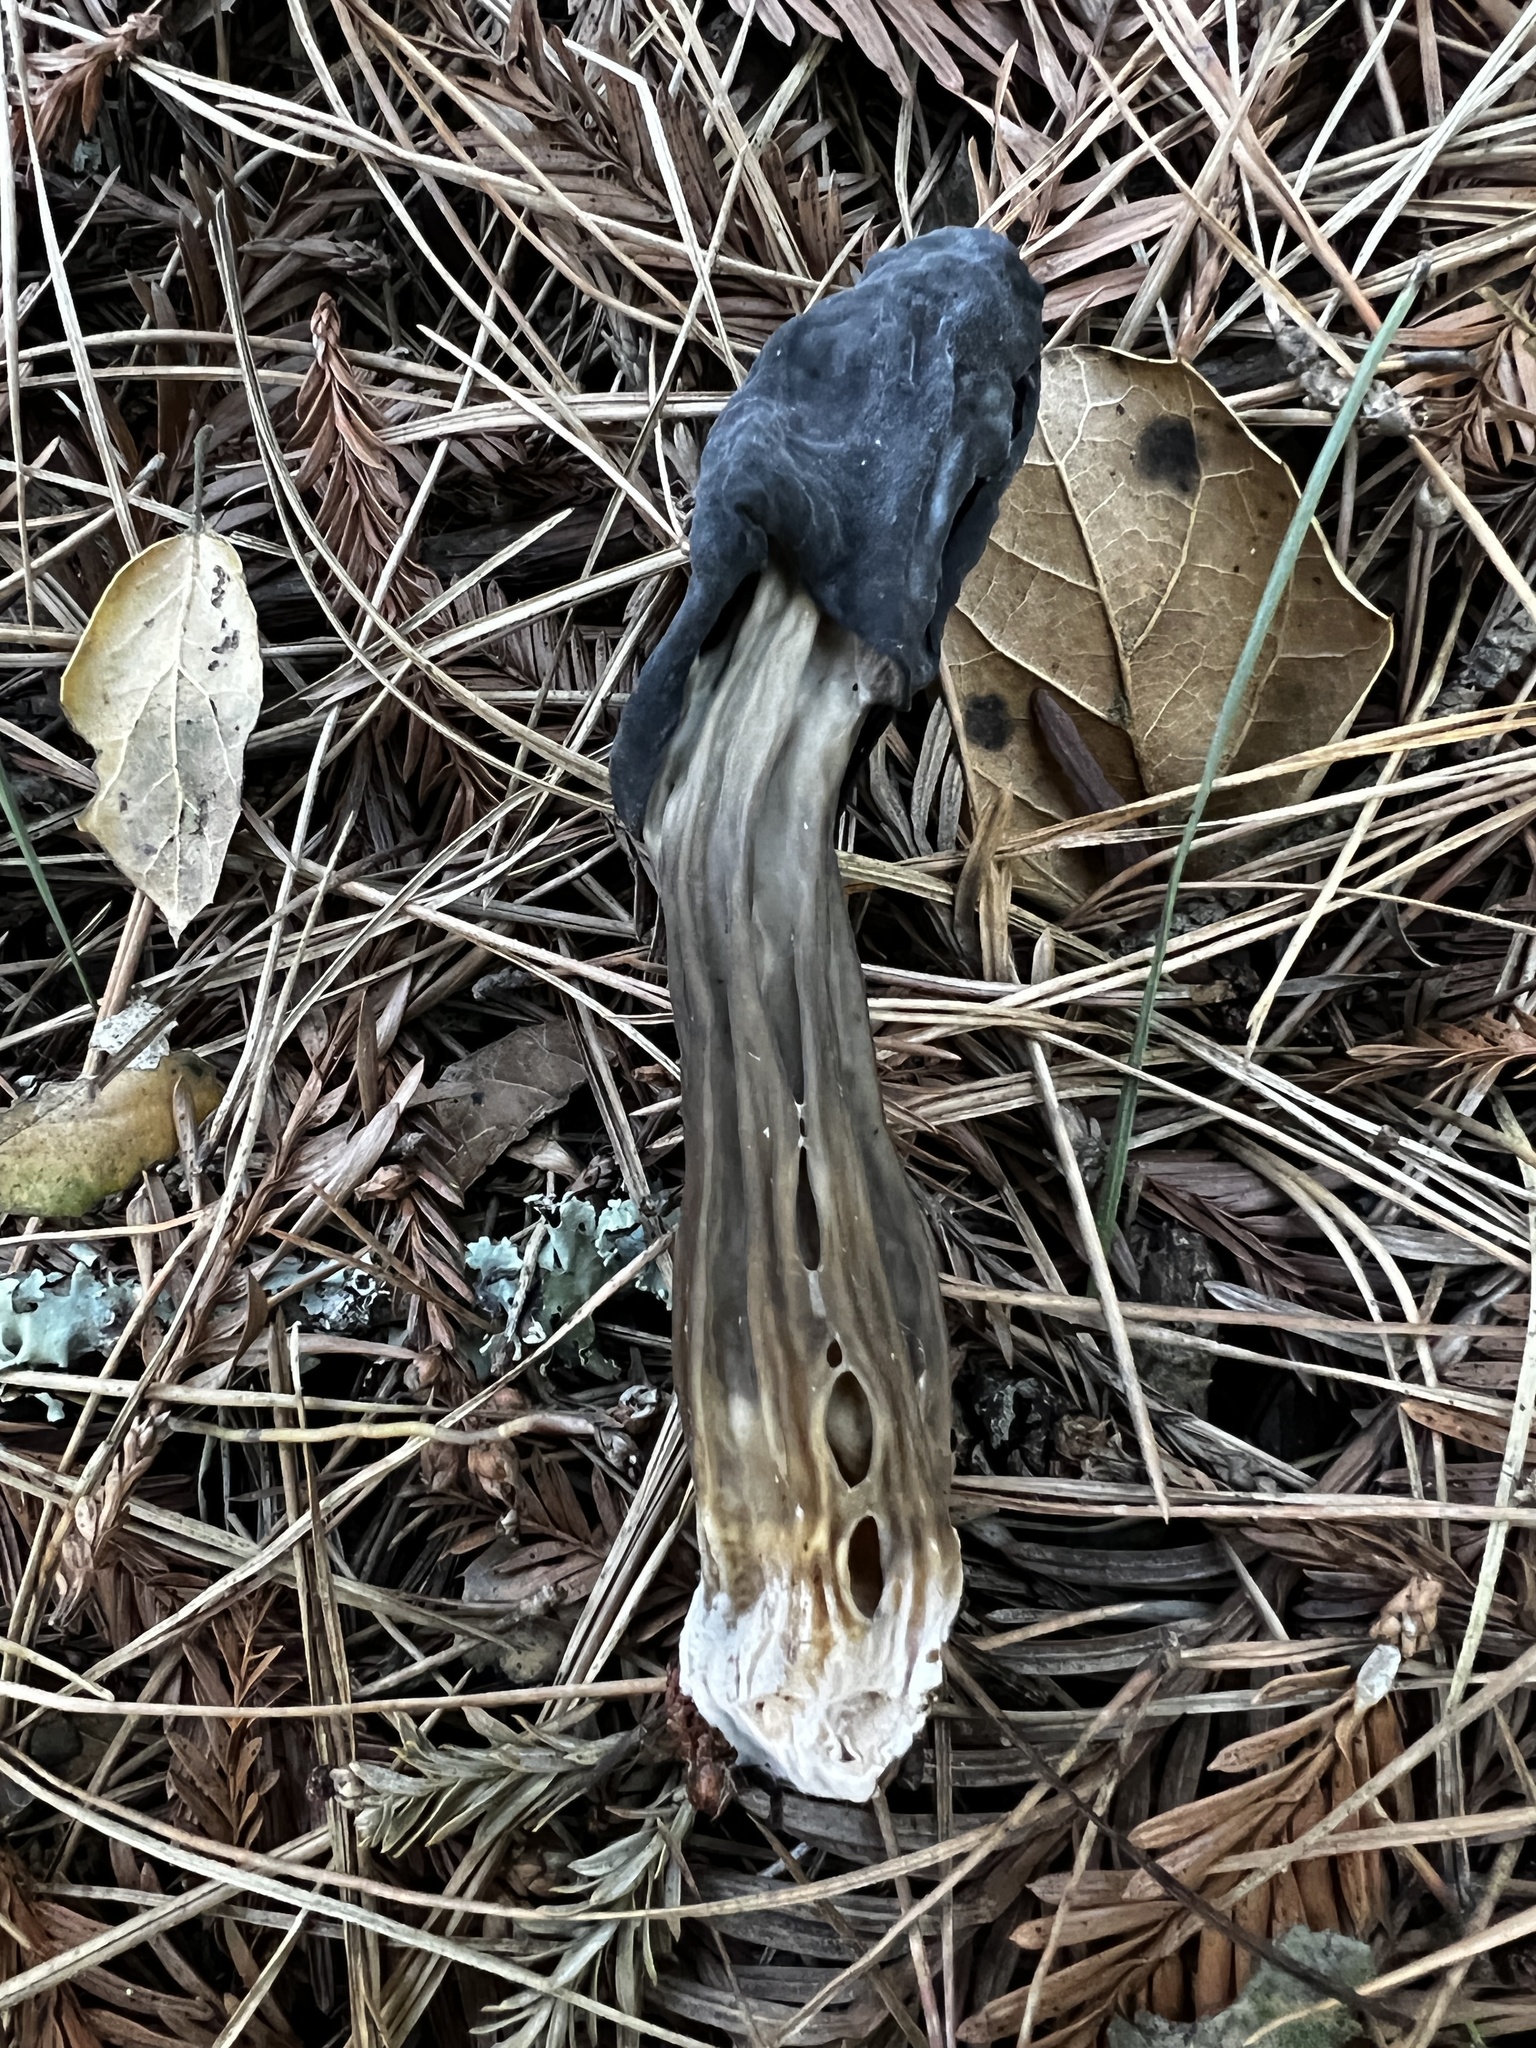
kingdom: Fungi
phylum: Ascomycota
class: Pezizomycetes
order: Pezizales
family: Helvellaceae
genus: Helvella
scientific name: Helvella dryophila
